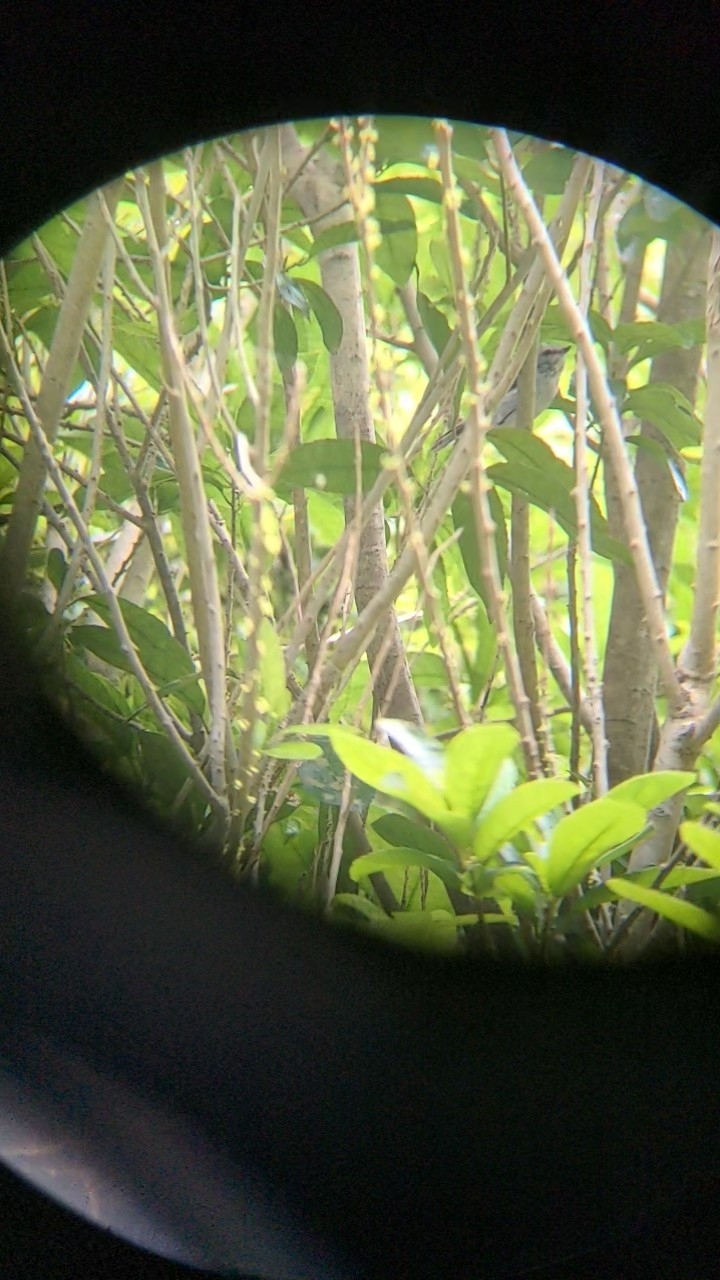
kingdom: Animalia
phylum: Chordata
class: Aves
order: Passeriformes
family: Acanthizidae
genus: Gerygone
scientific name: Gerygone igata
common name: Grey gerygone
